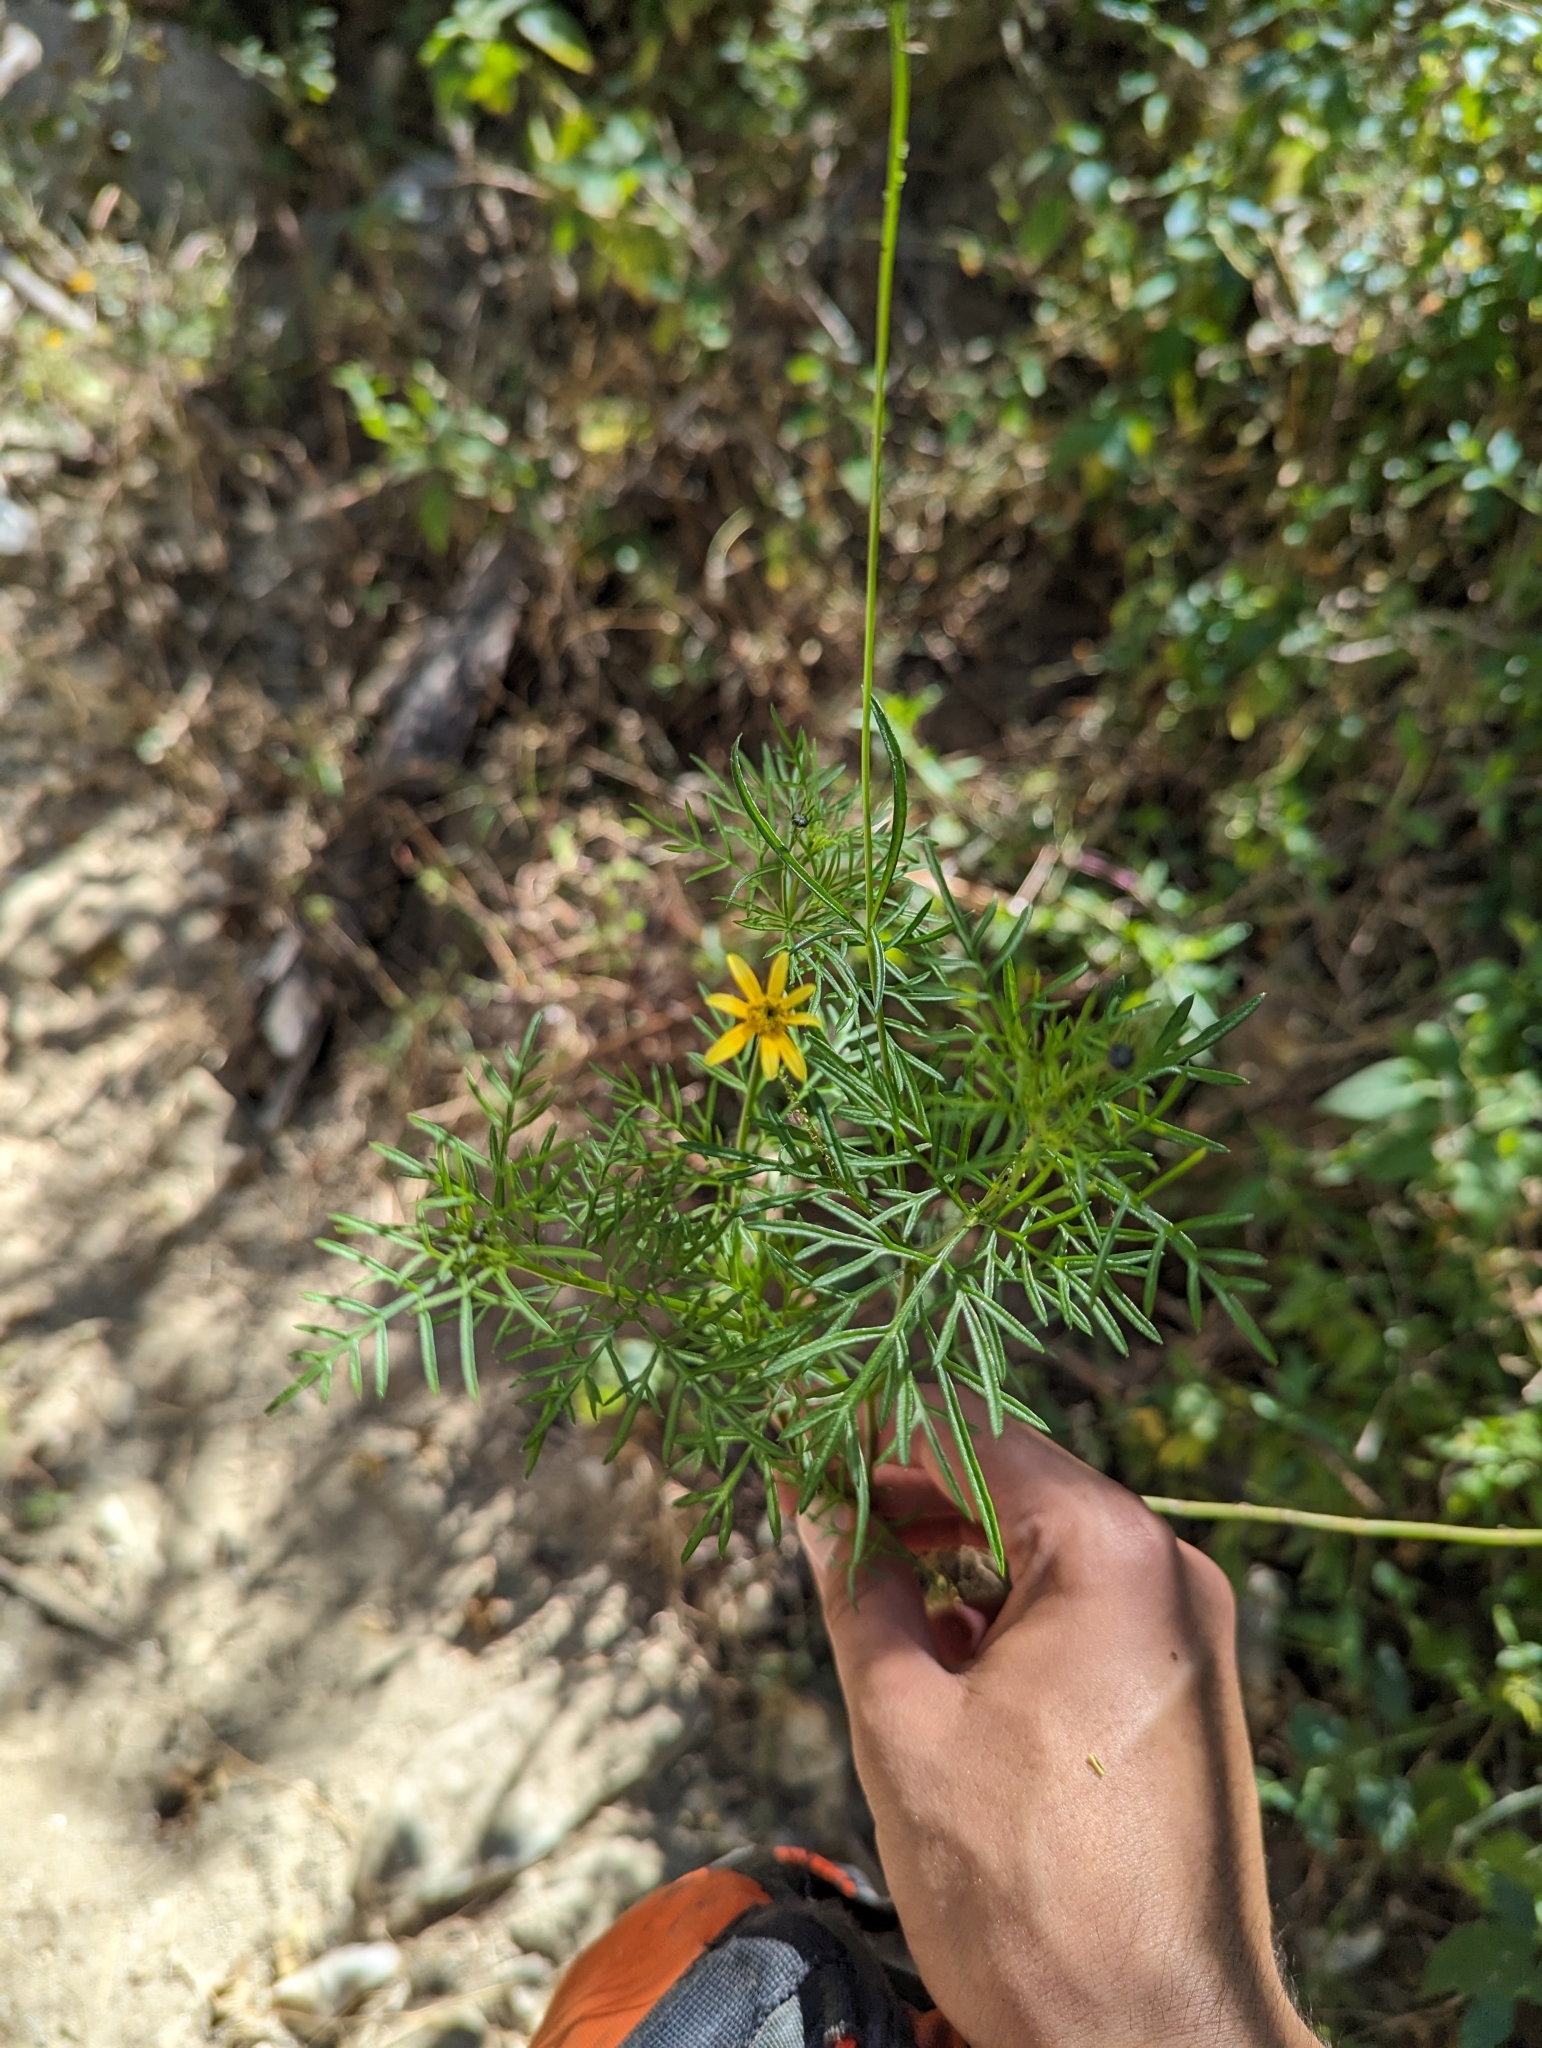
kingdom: Plantae
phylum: Tracheophyta
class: Magnoliopsida
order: Asterales
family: Asteraceae
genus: Bidens
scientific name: Bidens xanti
